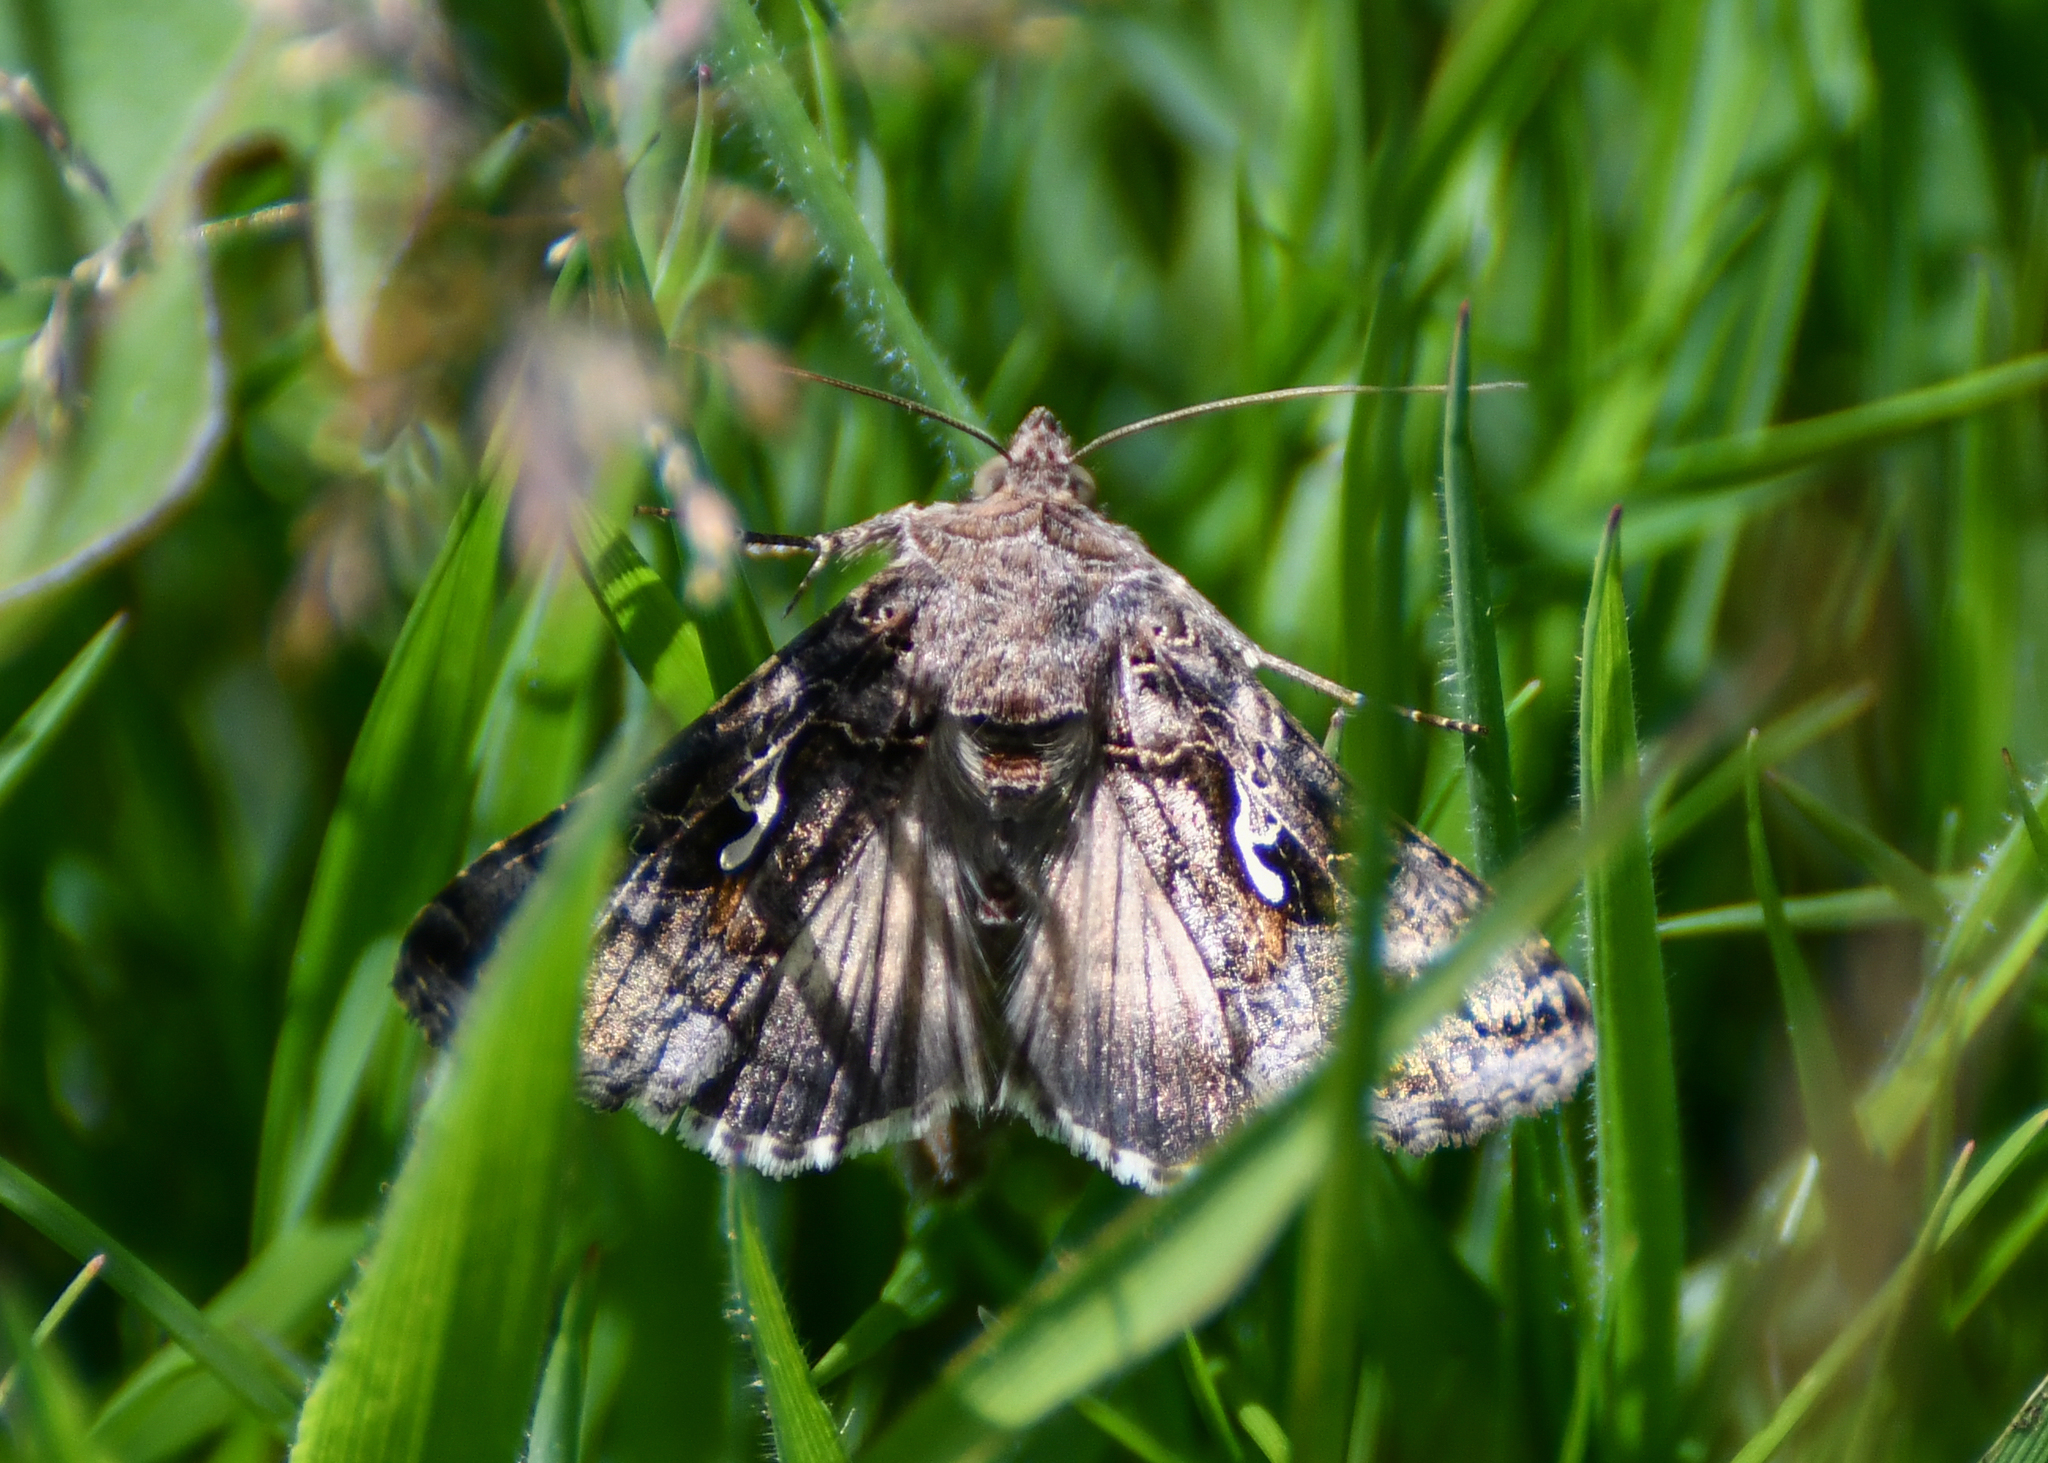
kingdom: Animalia
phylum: Arthropoda
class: Insecta
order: Lepidoptera
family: Noctuidae
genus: Autographa
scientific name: Autographa gamma
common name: Silver y
